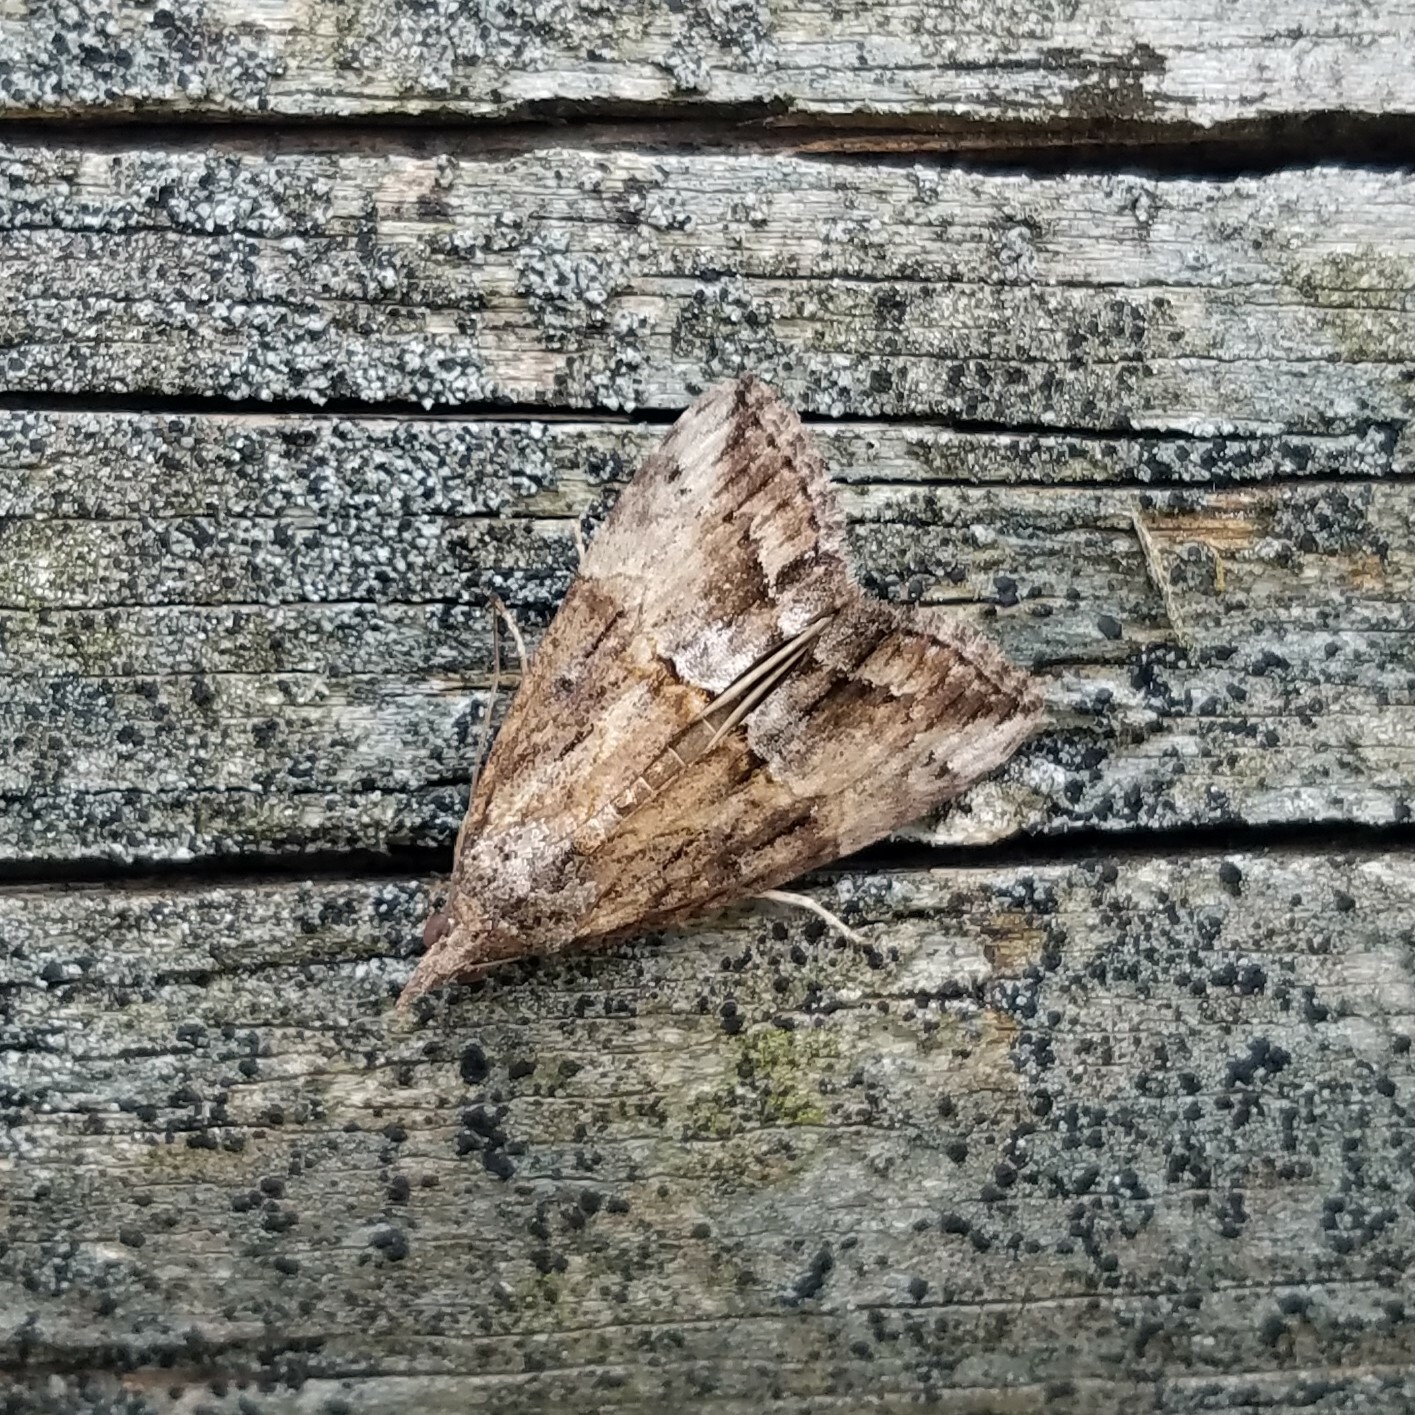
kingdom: Animalia
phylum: Arthropoda
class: Insecta
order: Lepidoptera
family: Erebidae
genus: Hypena
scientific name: Hypena scabra
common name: Green cloverworm
